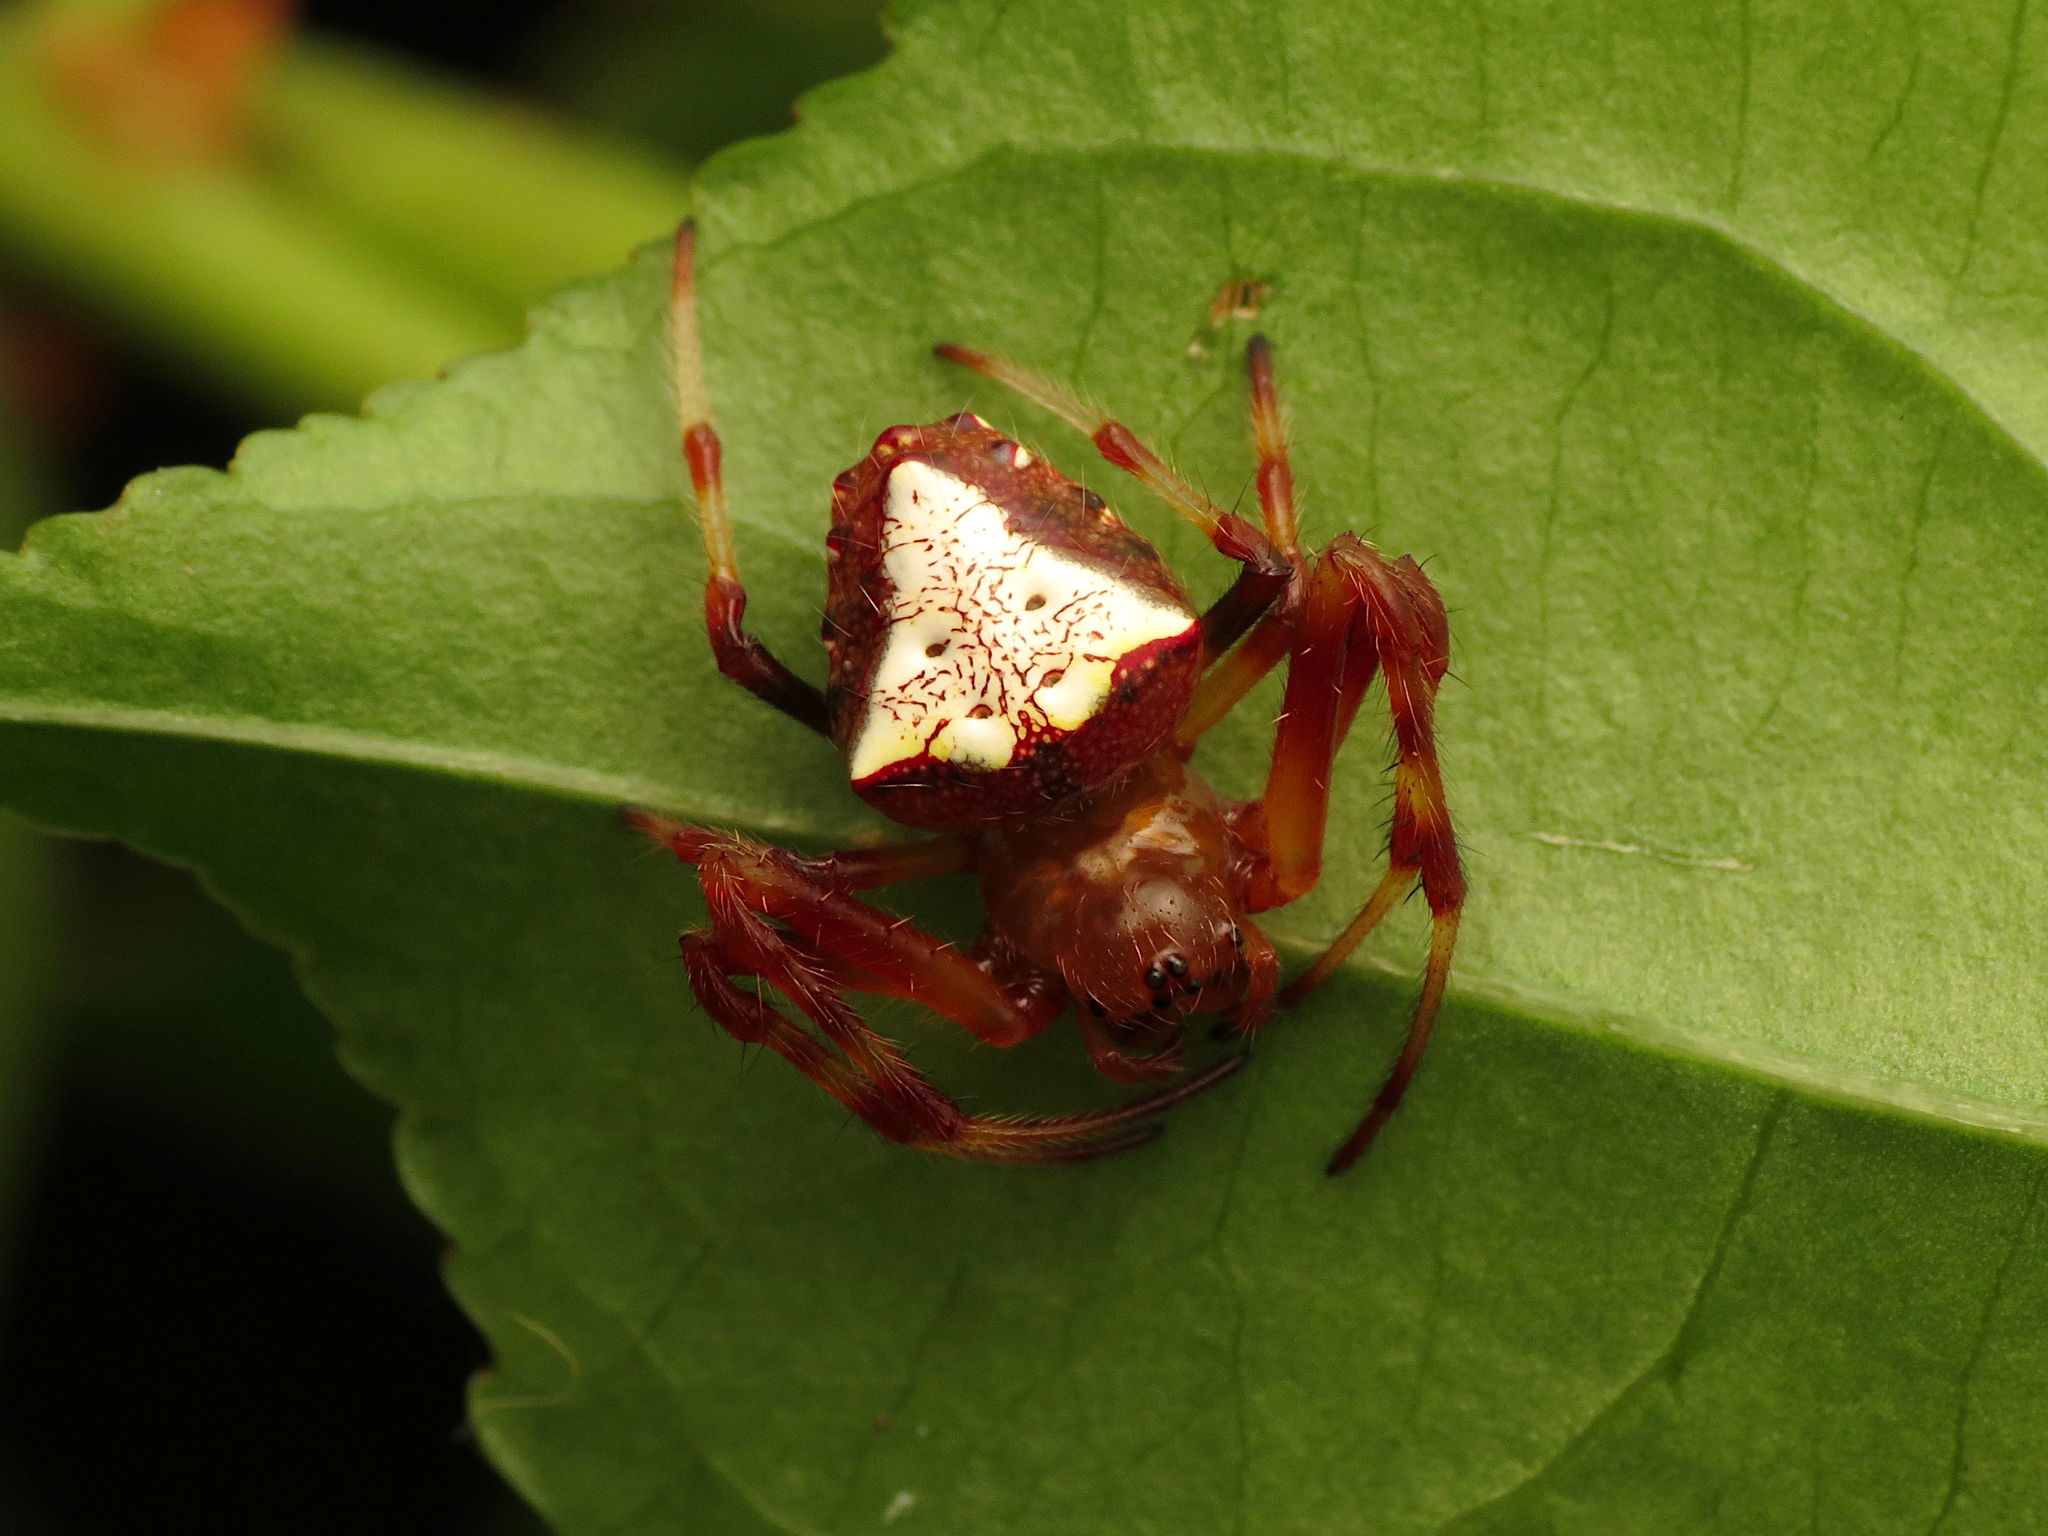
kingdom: Animalia
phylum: Arthropoda
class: Arachnida
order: Araneae
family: Araneidae
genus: Verrucosa
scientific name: Verrucosa arenata
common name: Orb weavers
